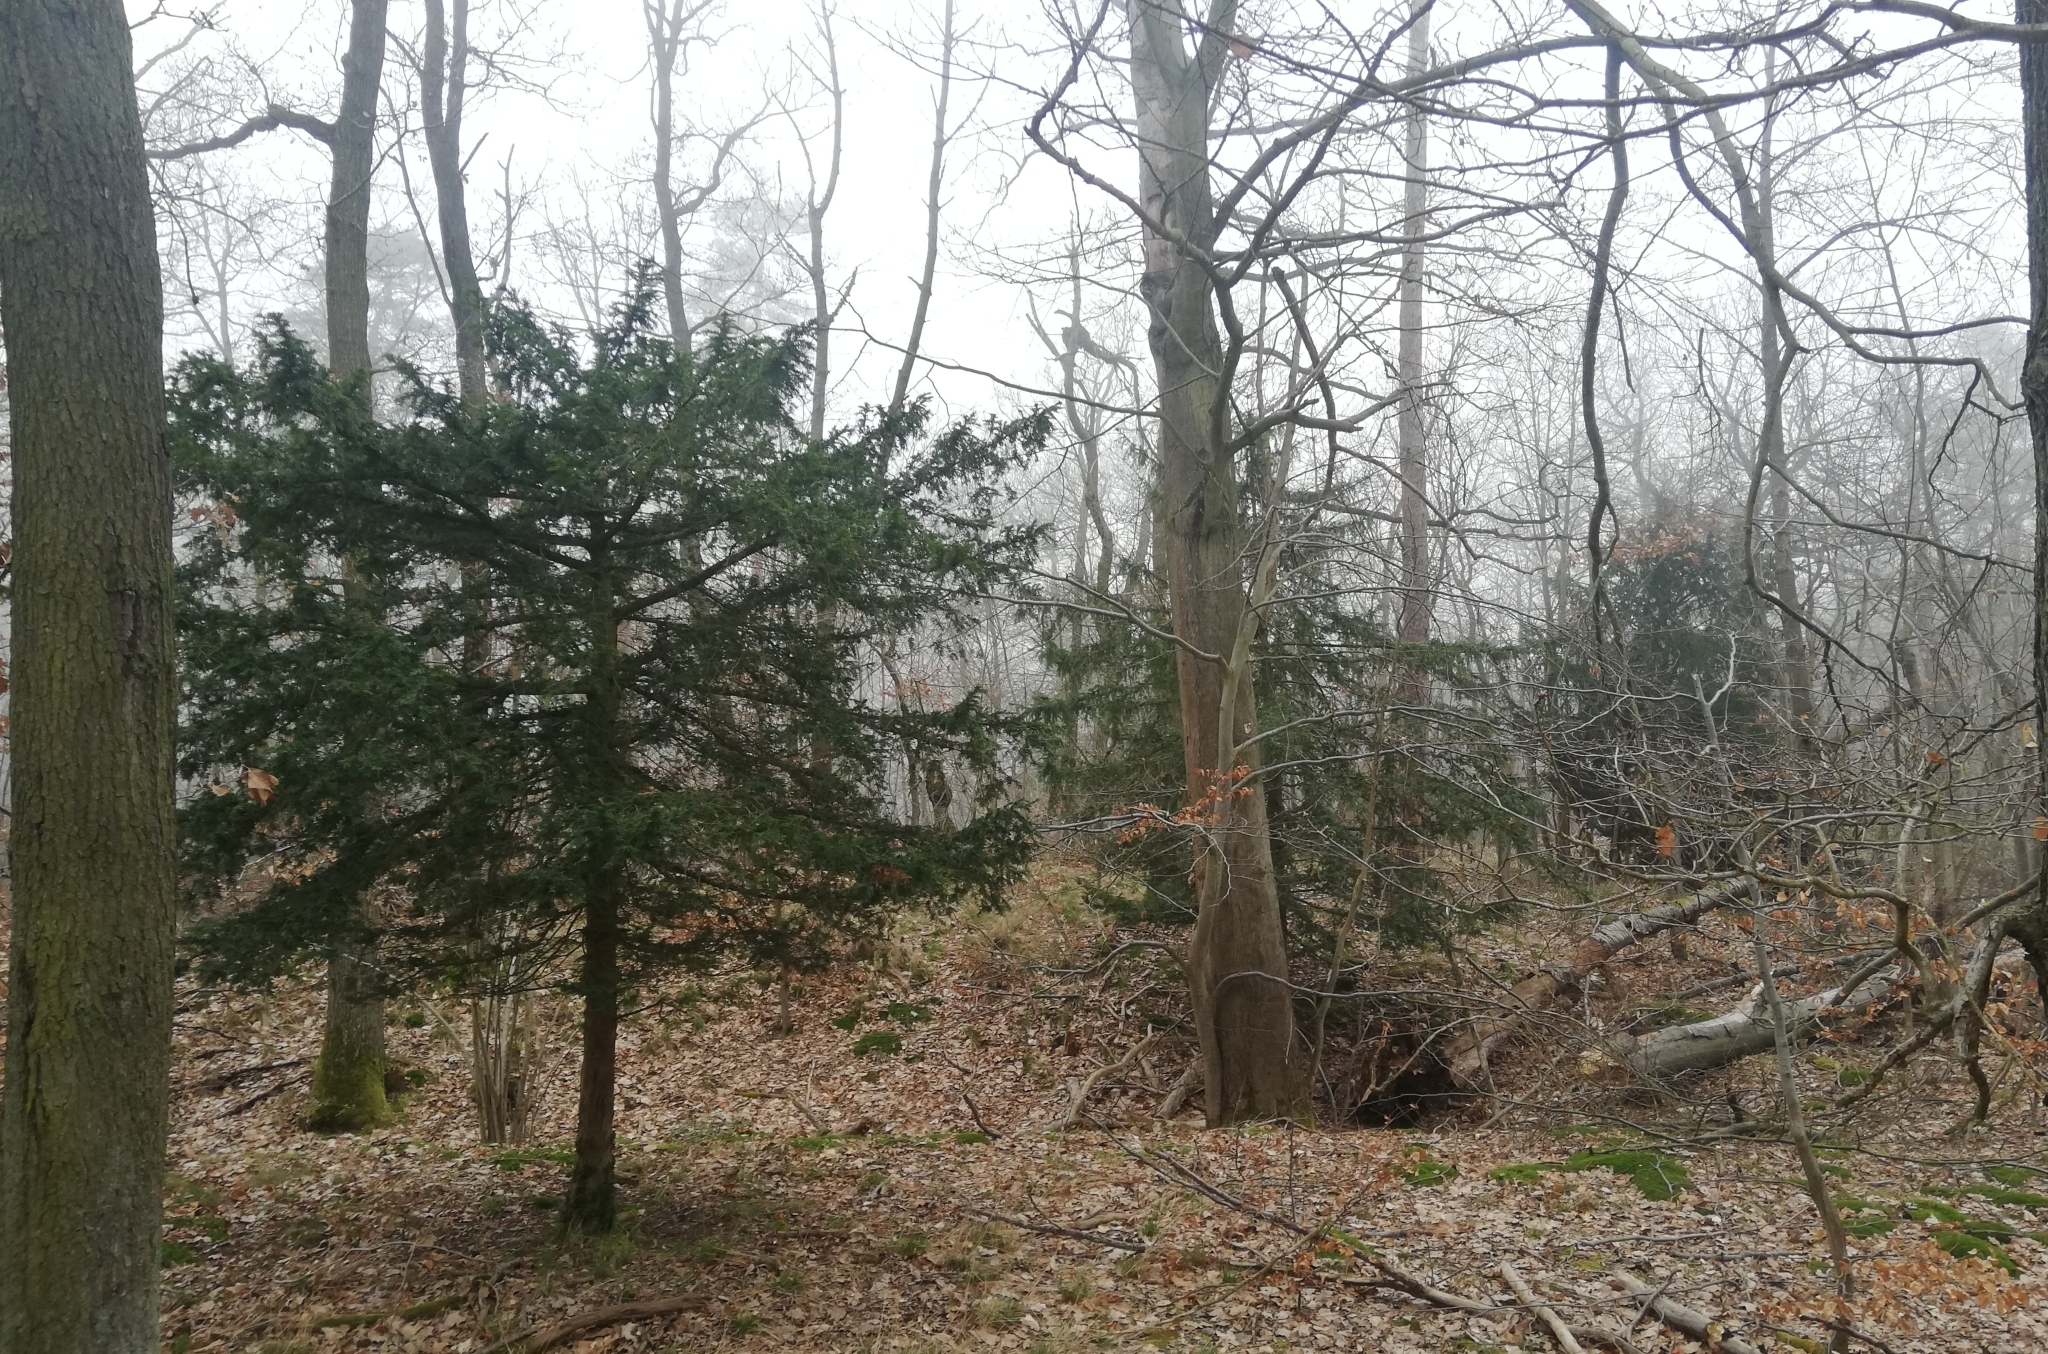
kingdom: Plantae
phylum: Tracheophyta
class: Pinopsida
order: Pinales
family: Taxaceae
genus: Taxus
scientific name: Taxus baccata
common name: Yew
